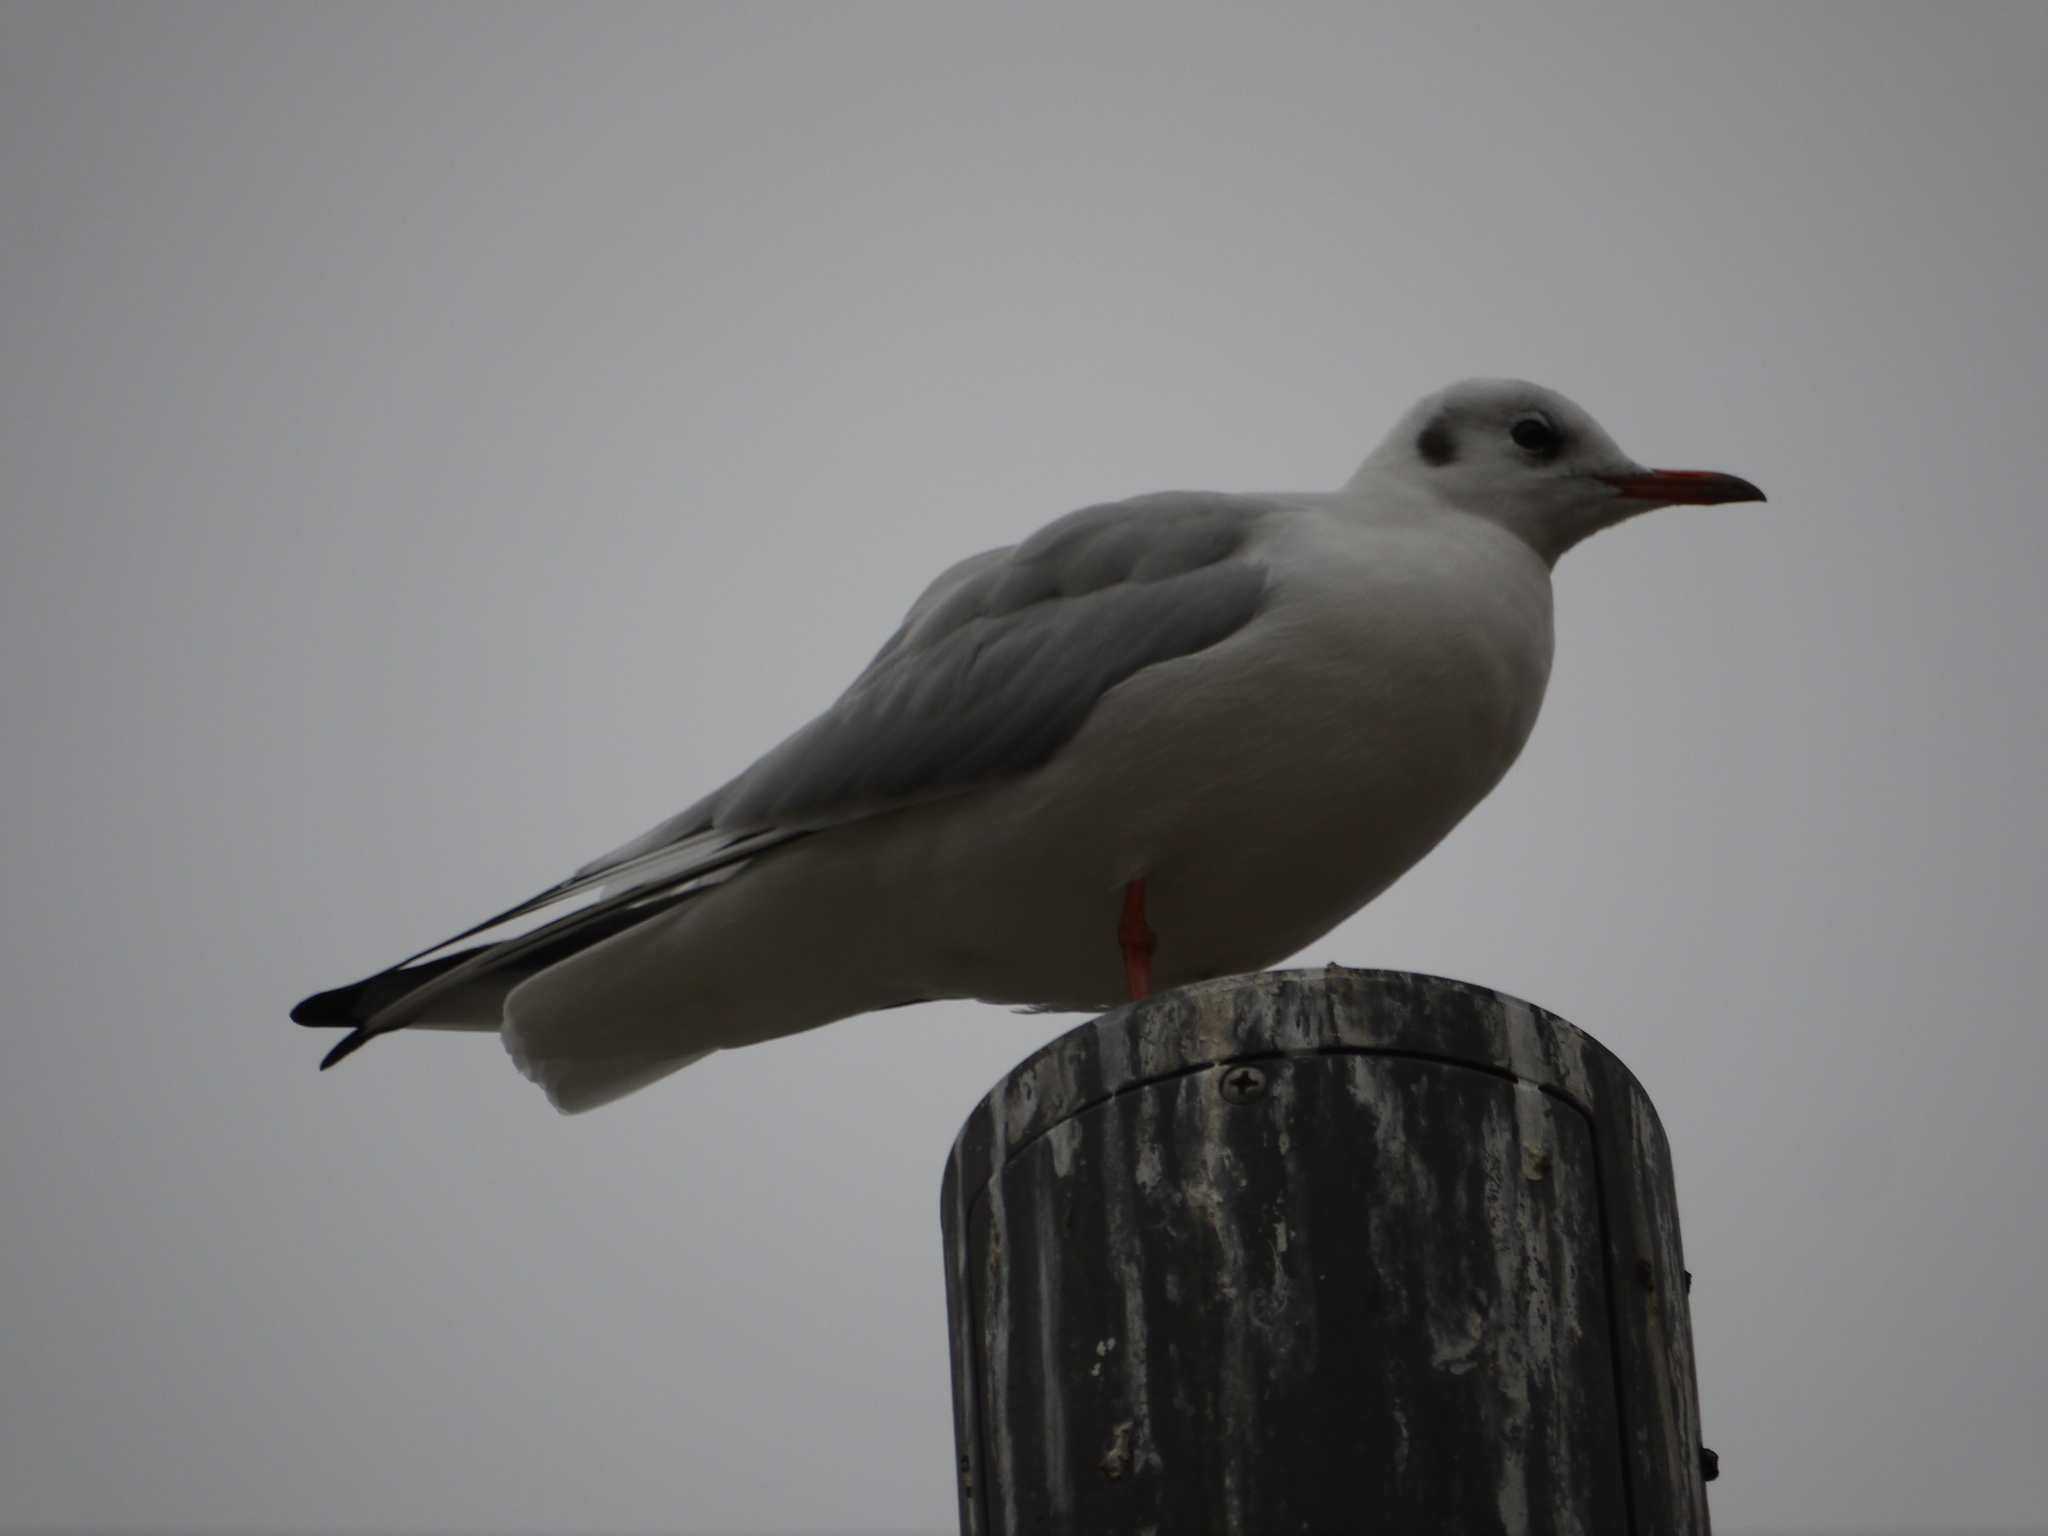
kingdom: Animalia
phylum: Chordata
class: Aves
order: Charadriiformes
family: Laridae
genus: Chroicocephalus
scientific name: Chroicocephalus ridibundus
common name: Black-headed gull
